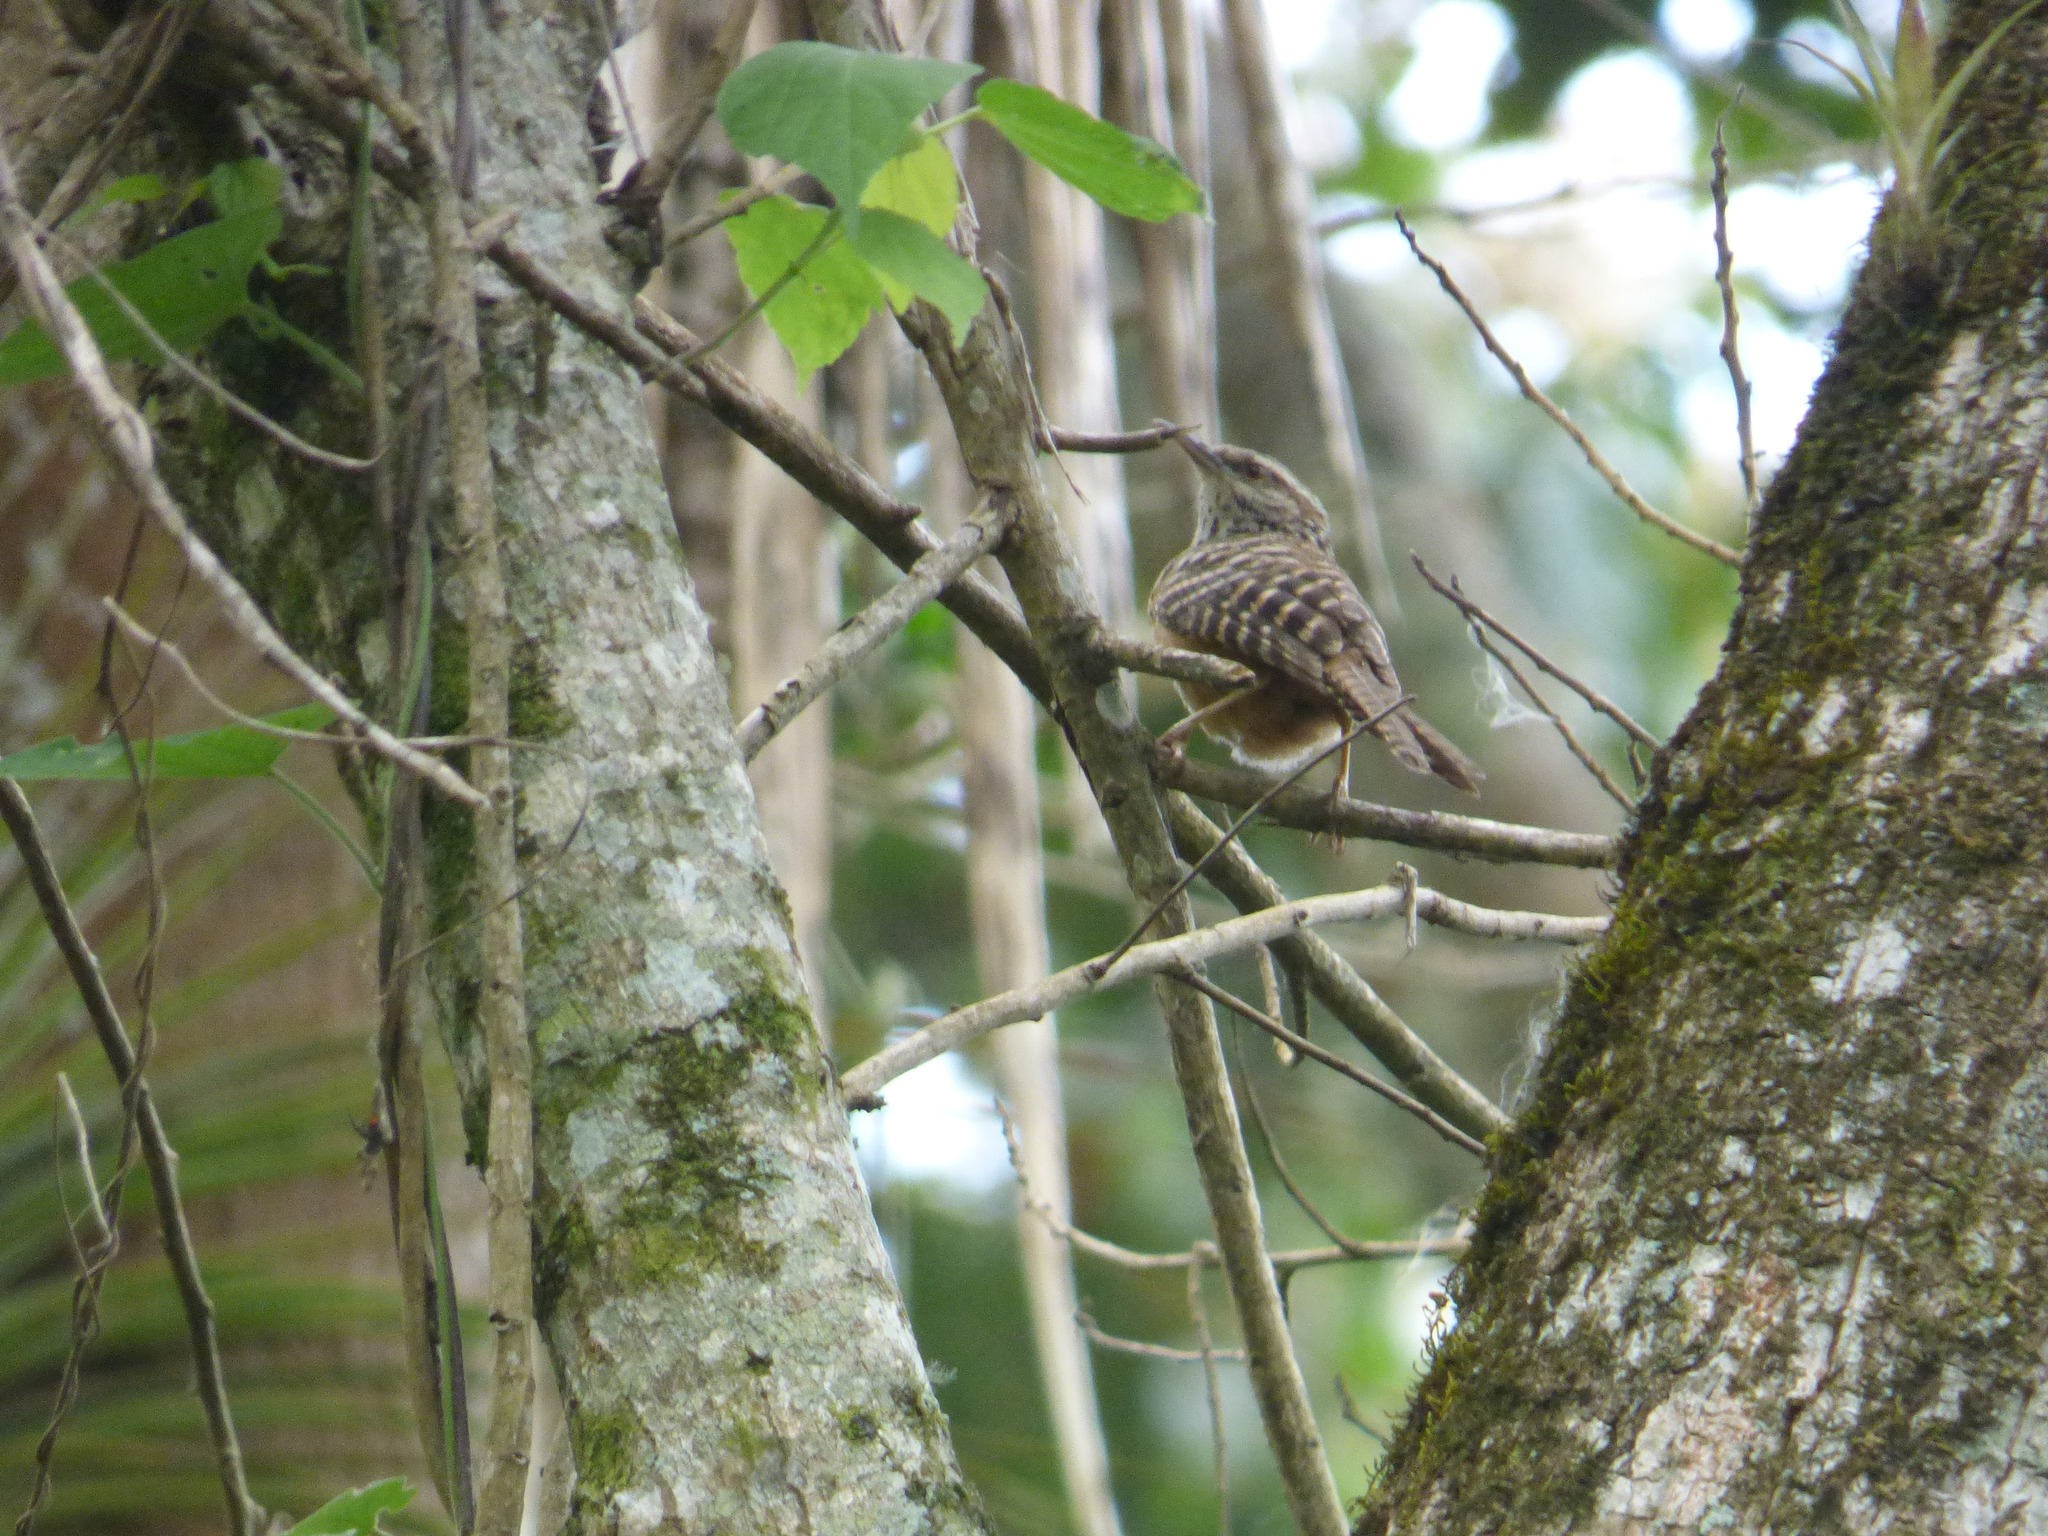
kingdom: Animalia
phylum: Chordata
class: Aves
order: Passeriformes
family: Troglodytidae
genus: Campylorhynchus
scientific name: Campylorhynchus zonatus
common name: Band-backed wren
